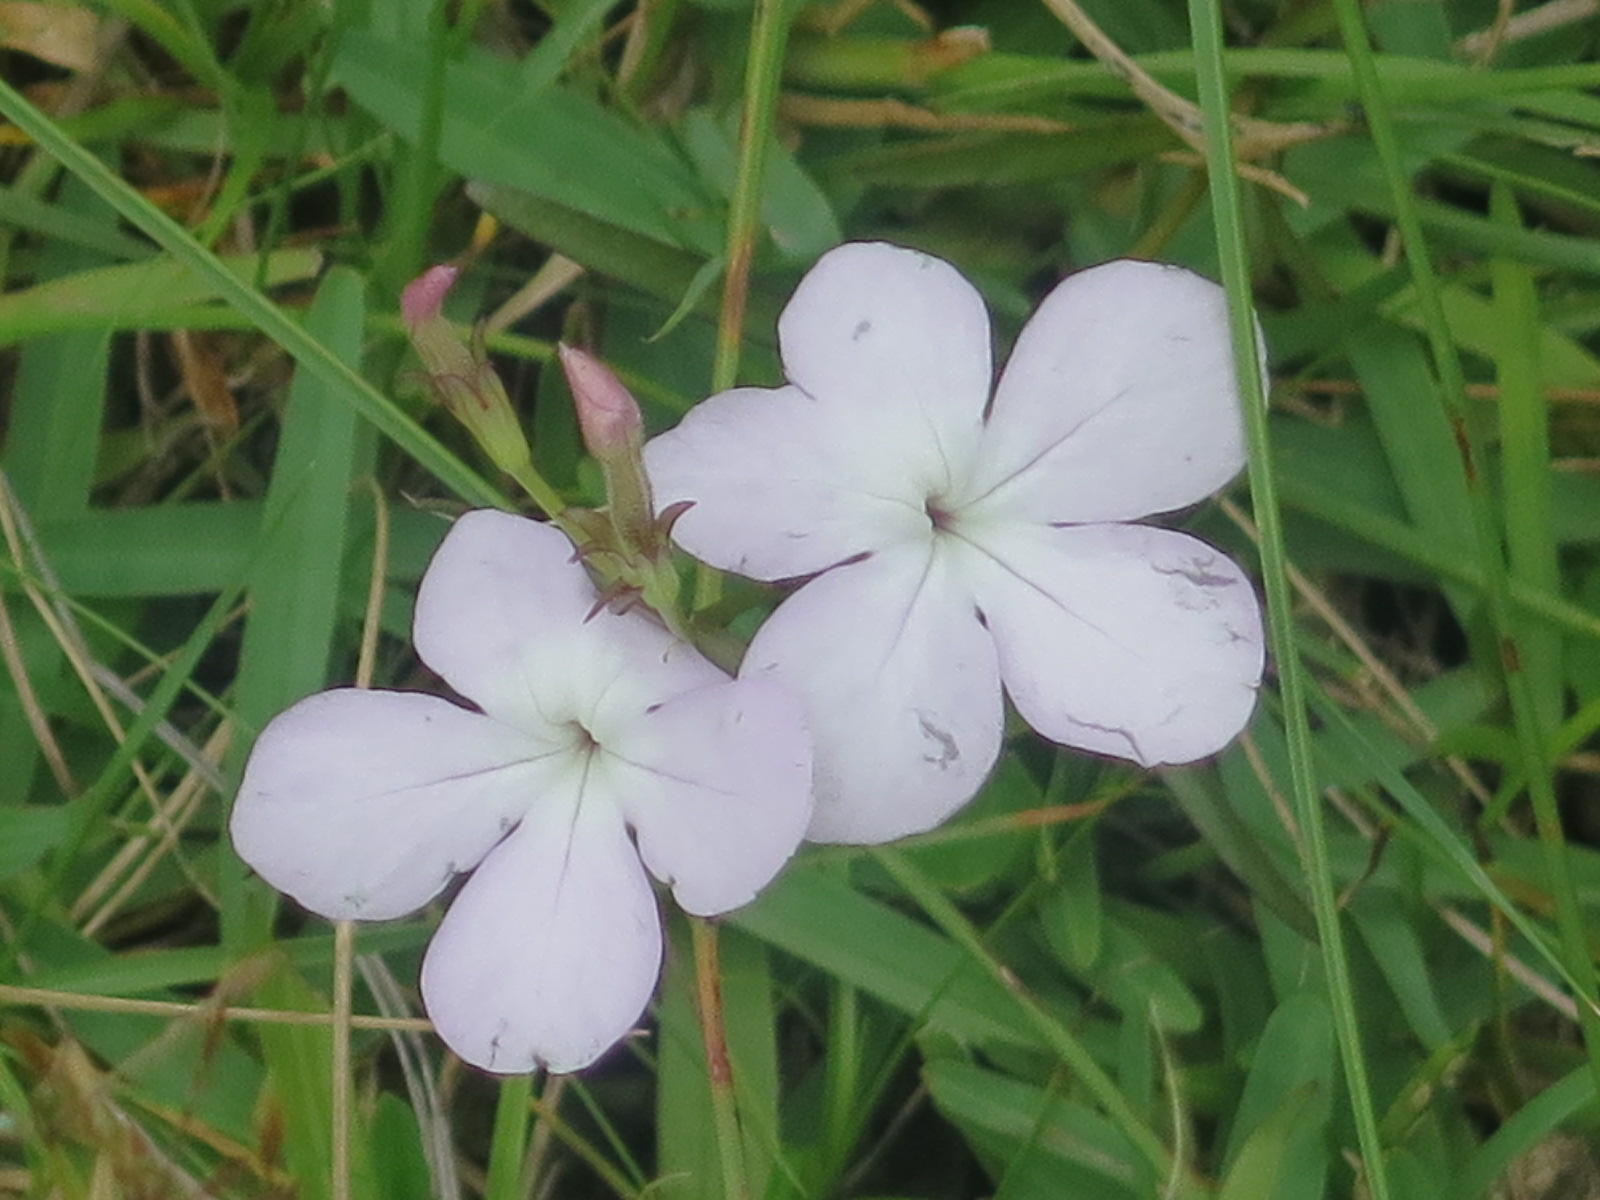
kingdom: Plantae
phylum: Tracheophyta
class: Magnoliopsida
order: Lamiales
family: Orobanchaceae
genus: Cycnium
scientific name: Cycnium tubulosum
